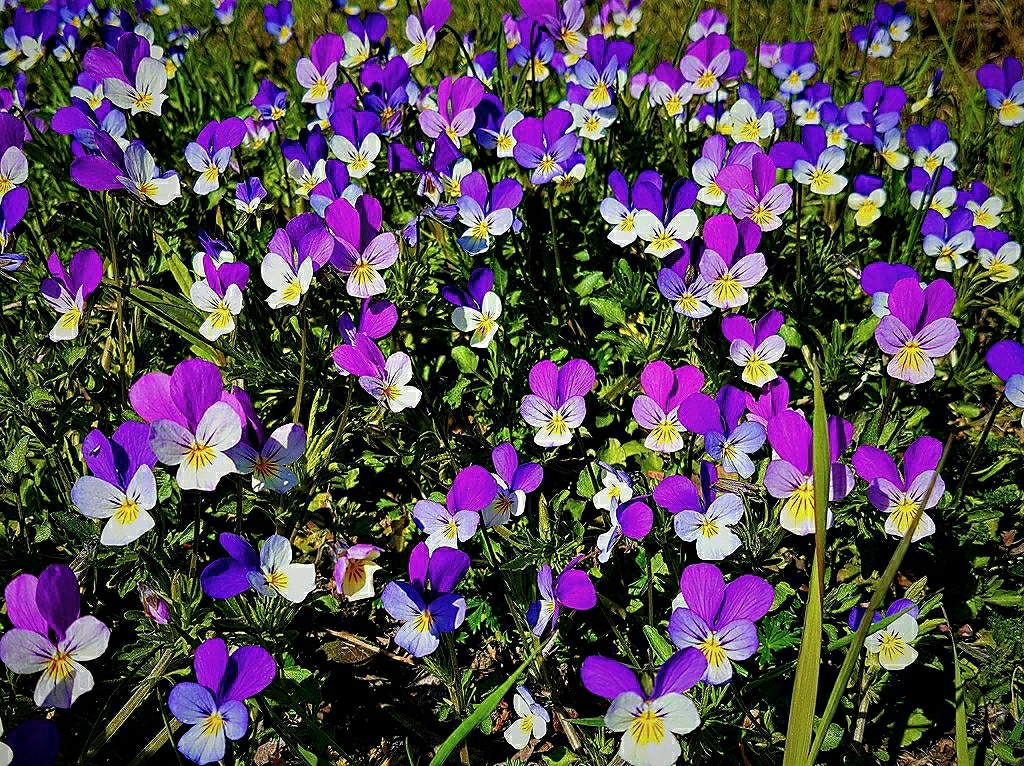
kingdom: Plantae
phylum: Tracheophyta
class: Magnoliopsida
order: Malpighiales
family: Violaceae
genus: Viola
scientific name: Viola tricolor
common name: Pansy
